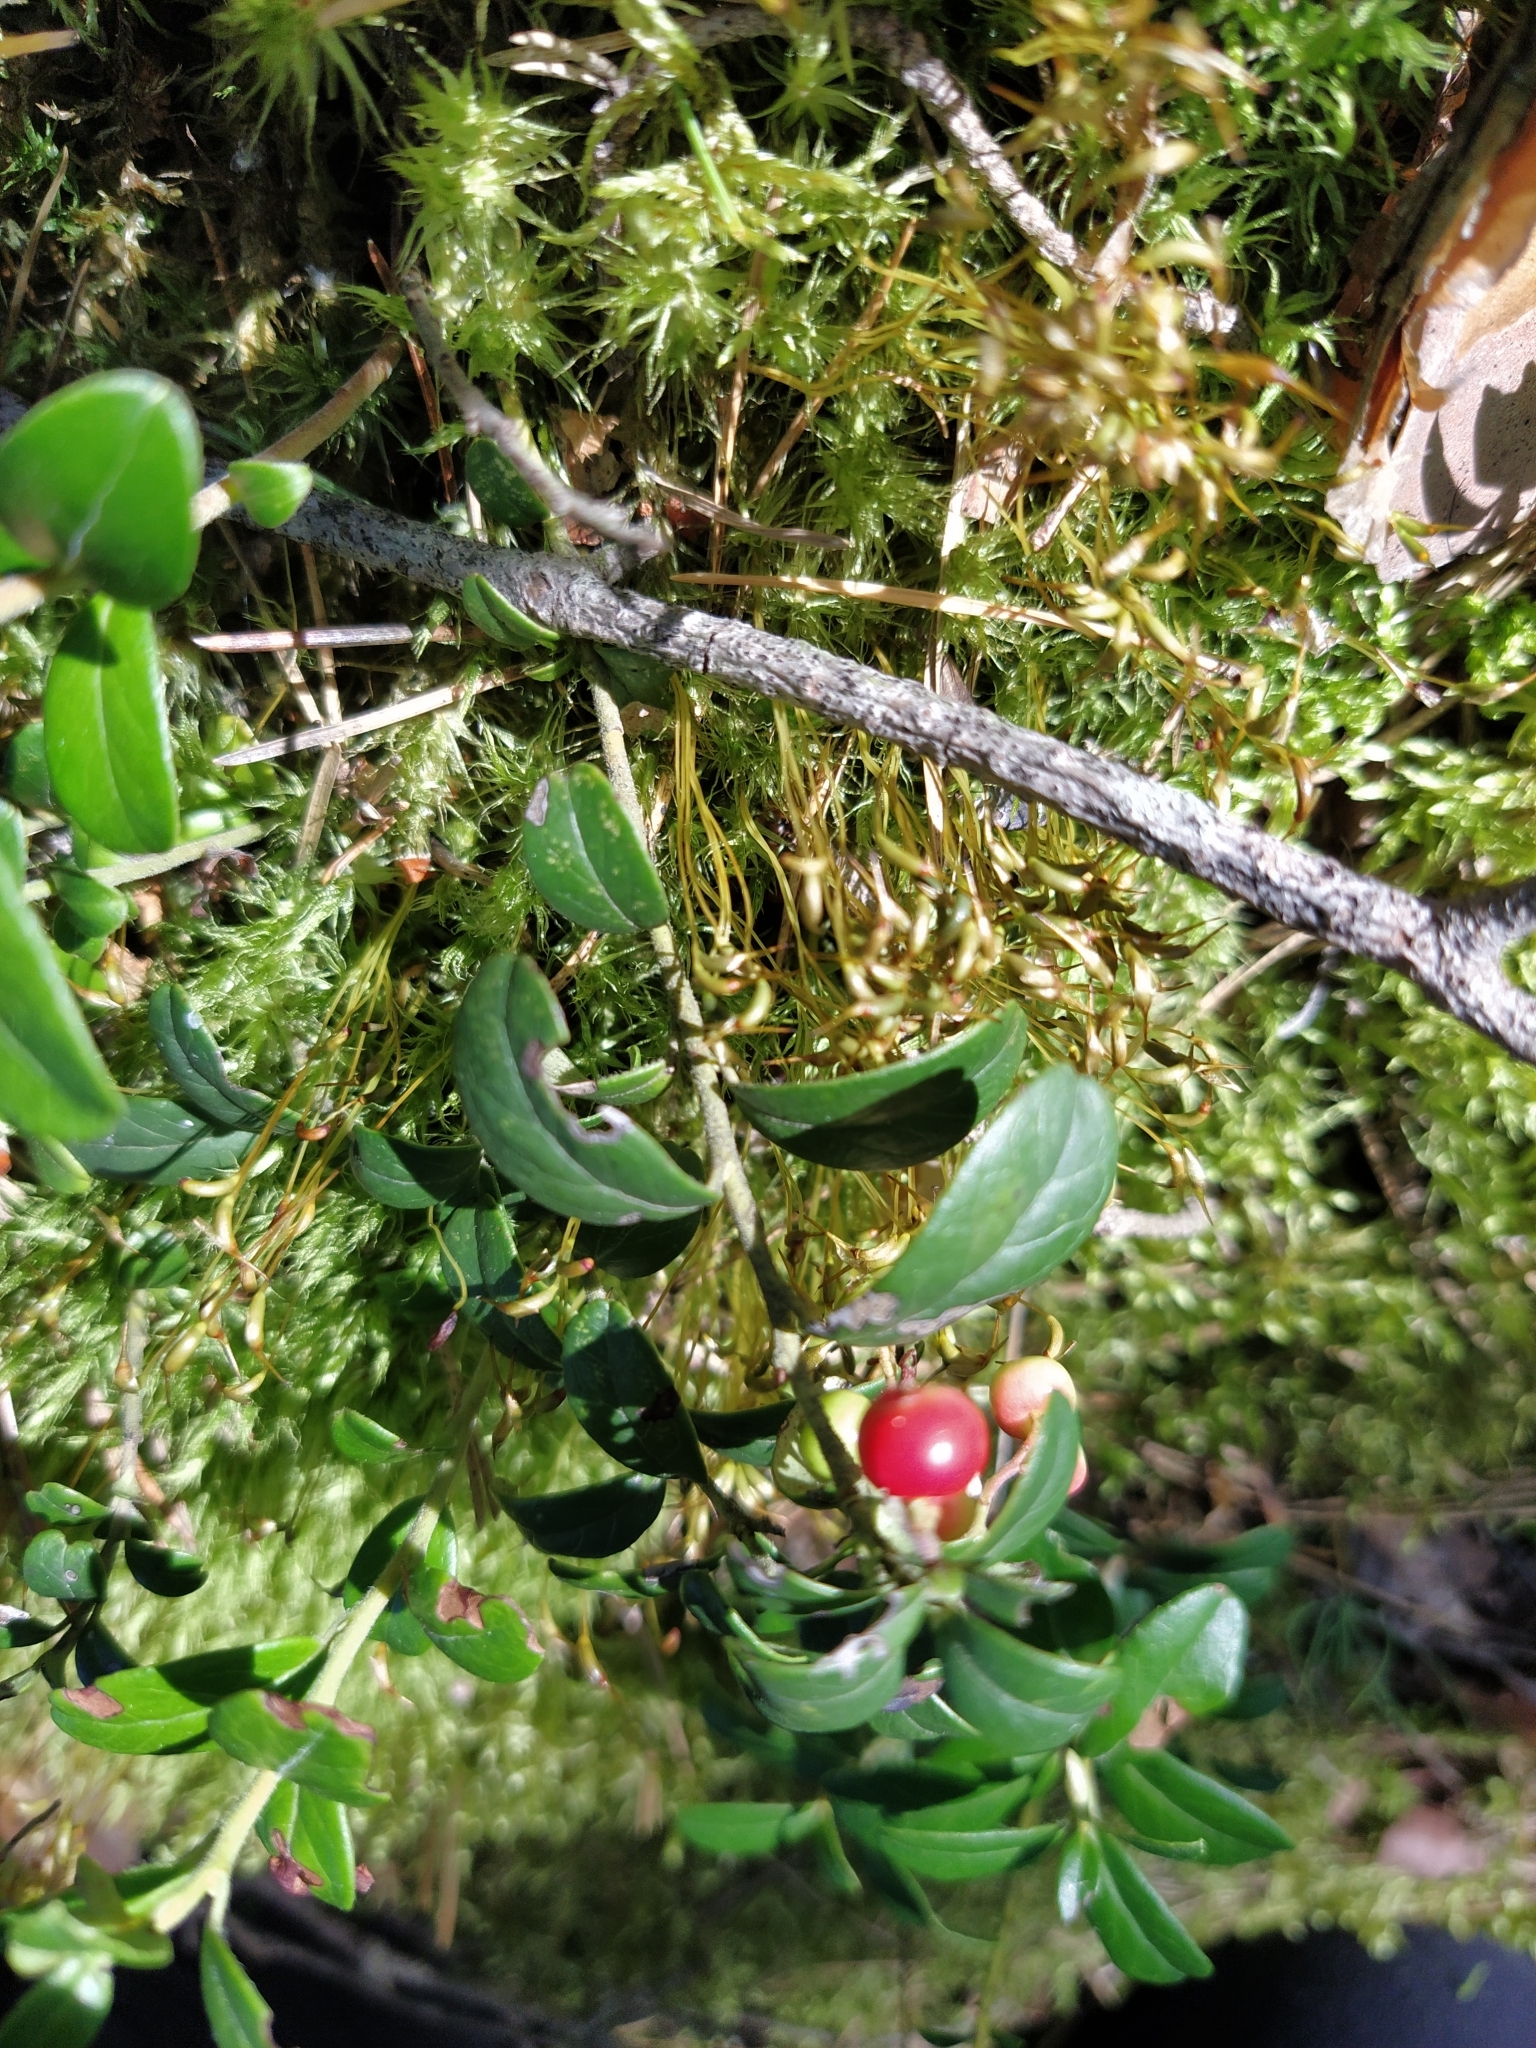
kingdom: Plantae
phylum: Tracheophyta
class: Magnoliopsida
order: Ericales
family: Ericaceae
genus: Vaccinium
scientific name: Vaccinium vitis-idaea
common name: Cowberry
